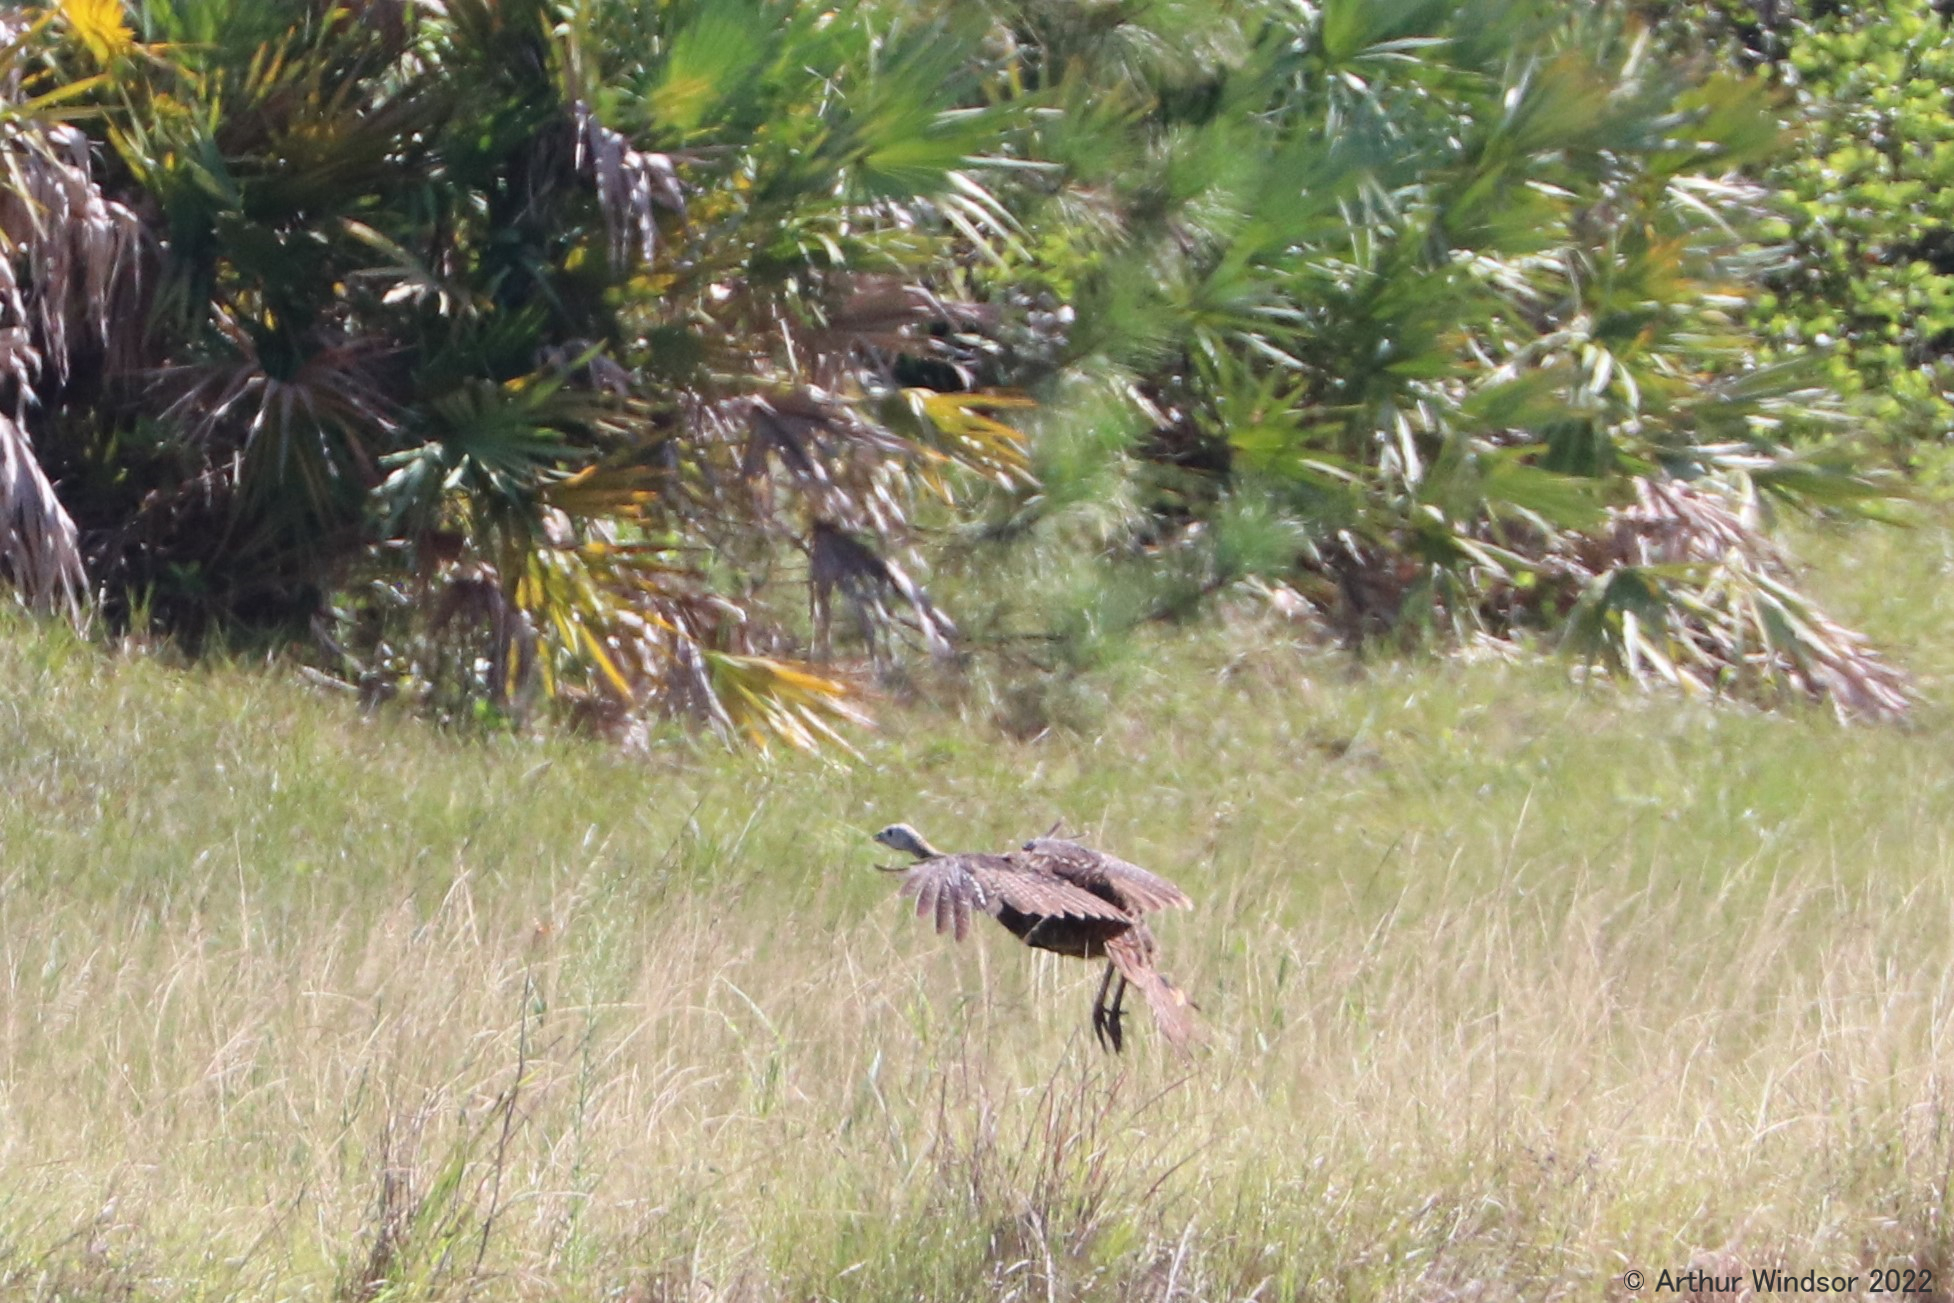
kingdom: Animalia
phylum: Chordata
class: Aves
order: Galliformes
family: Phasianidae
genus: Meleagris
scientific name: Meleagris gallopavo
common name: Wild turkey
